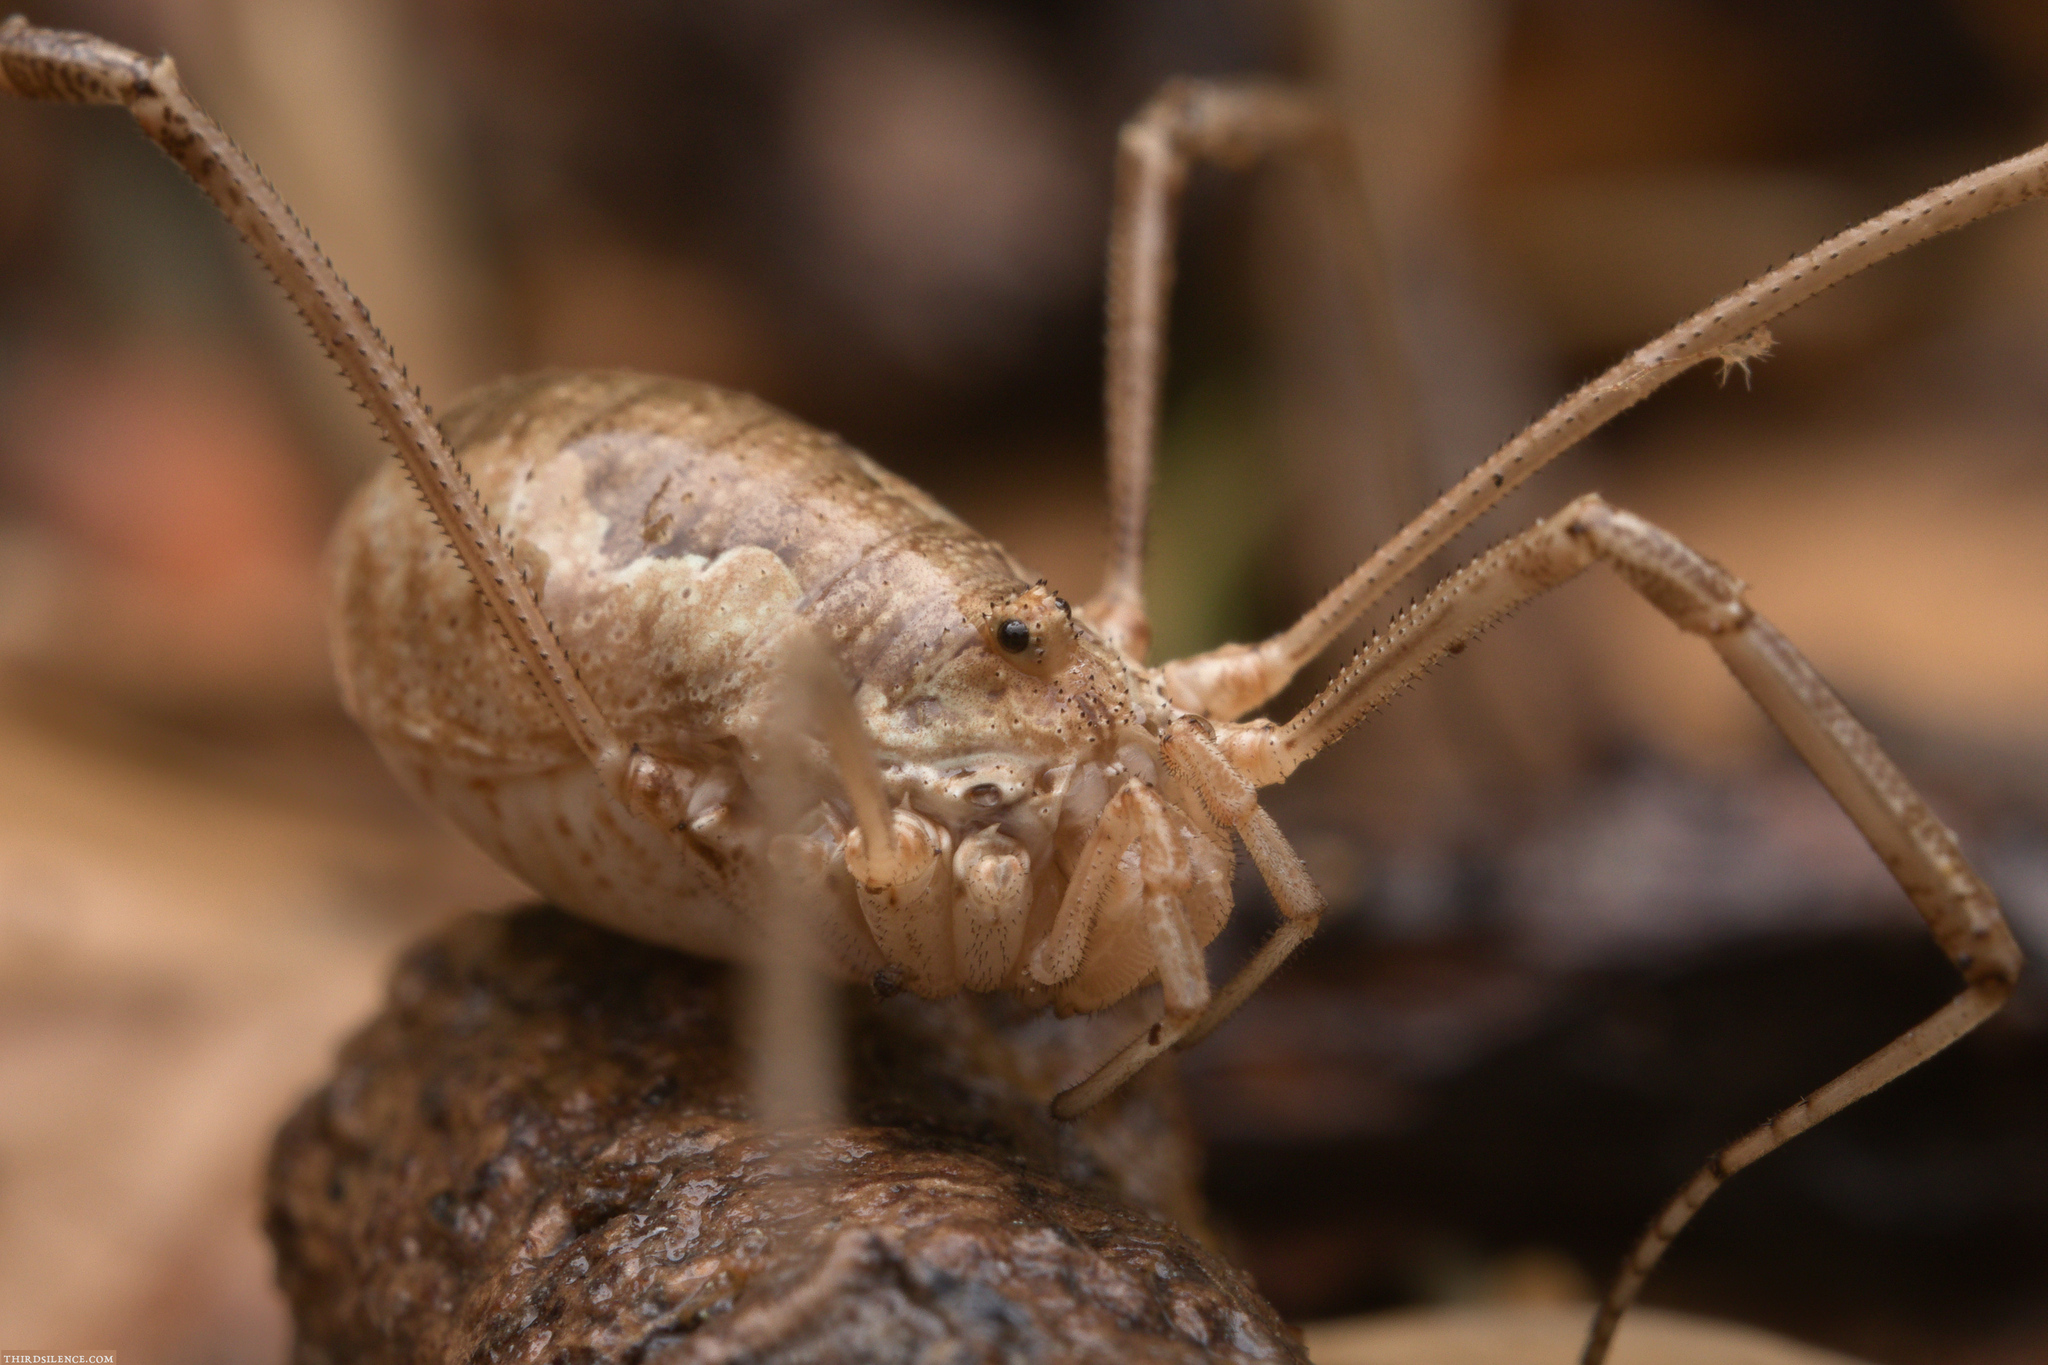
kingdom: Animalia
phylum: Arthropoda
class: Arachnida
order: Opiliones
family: Phalangiidae
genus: Phalangium
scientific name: Phalangium opilio
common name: Daddy longleg
